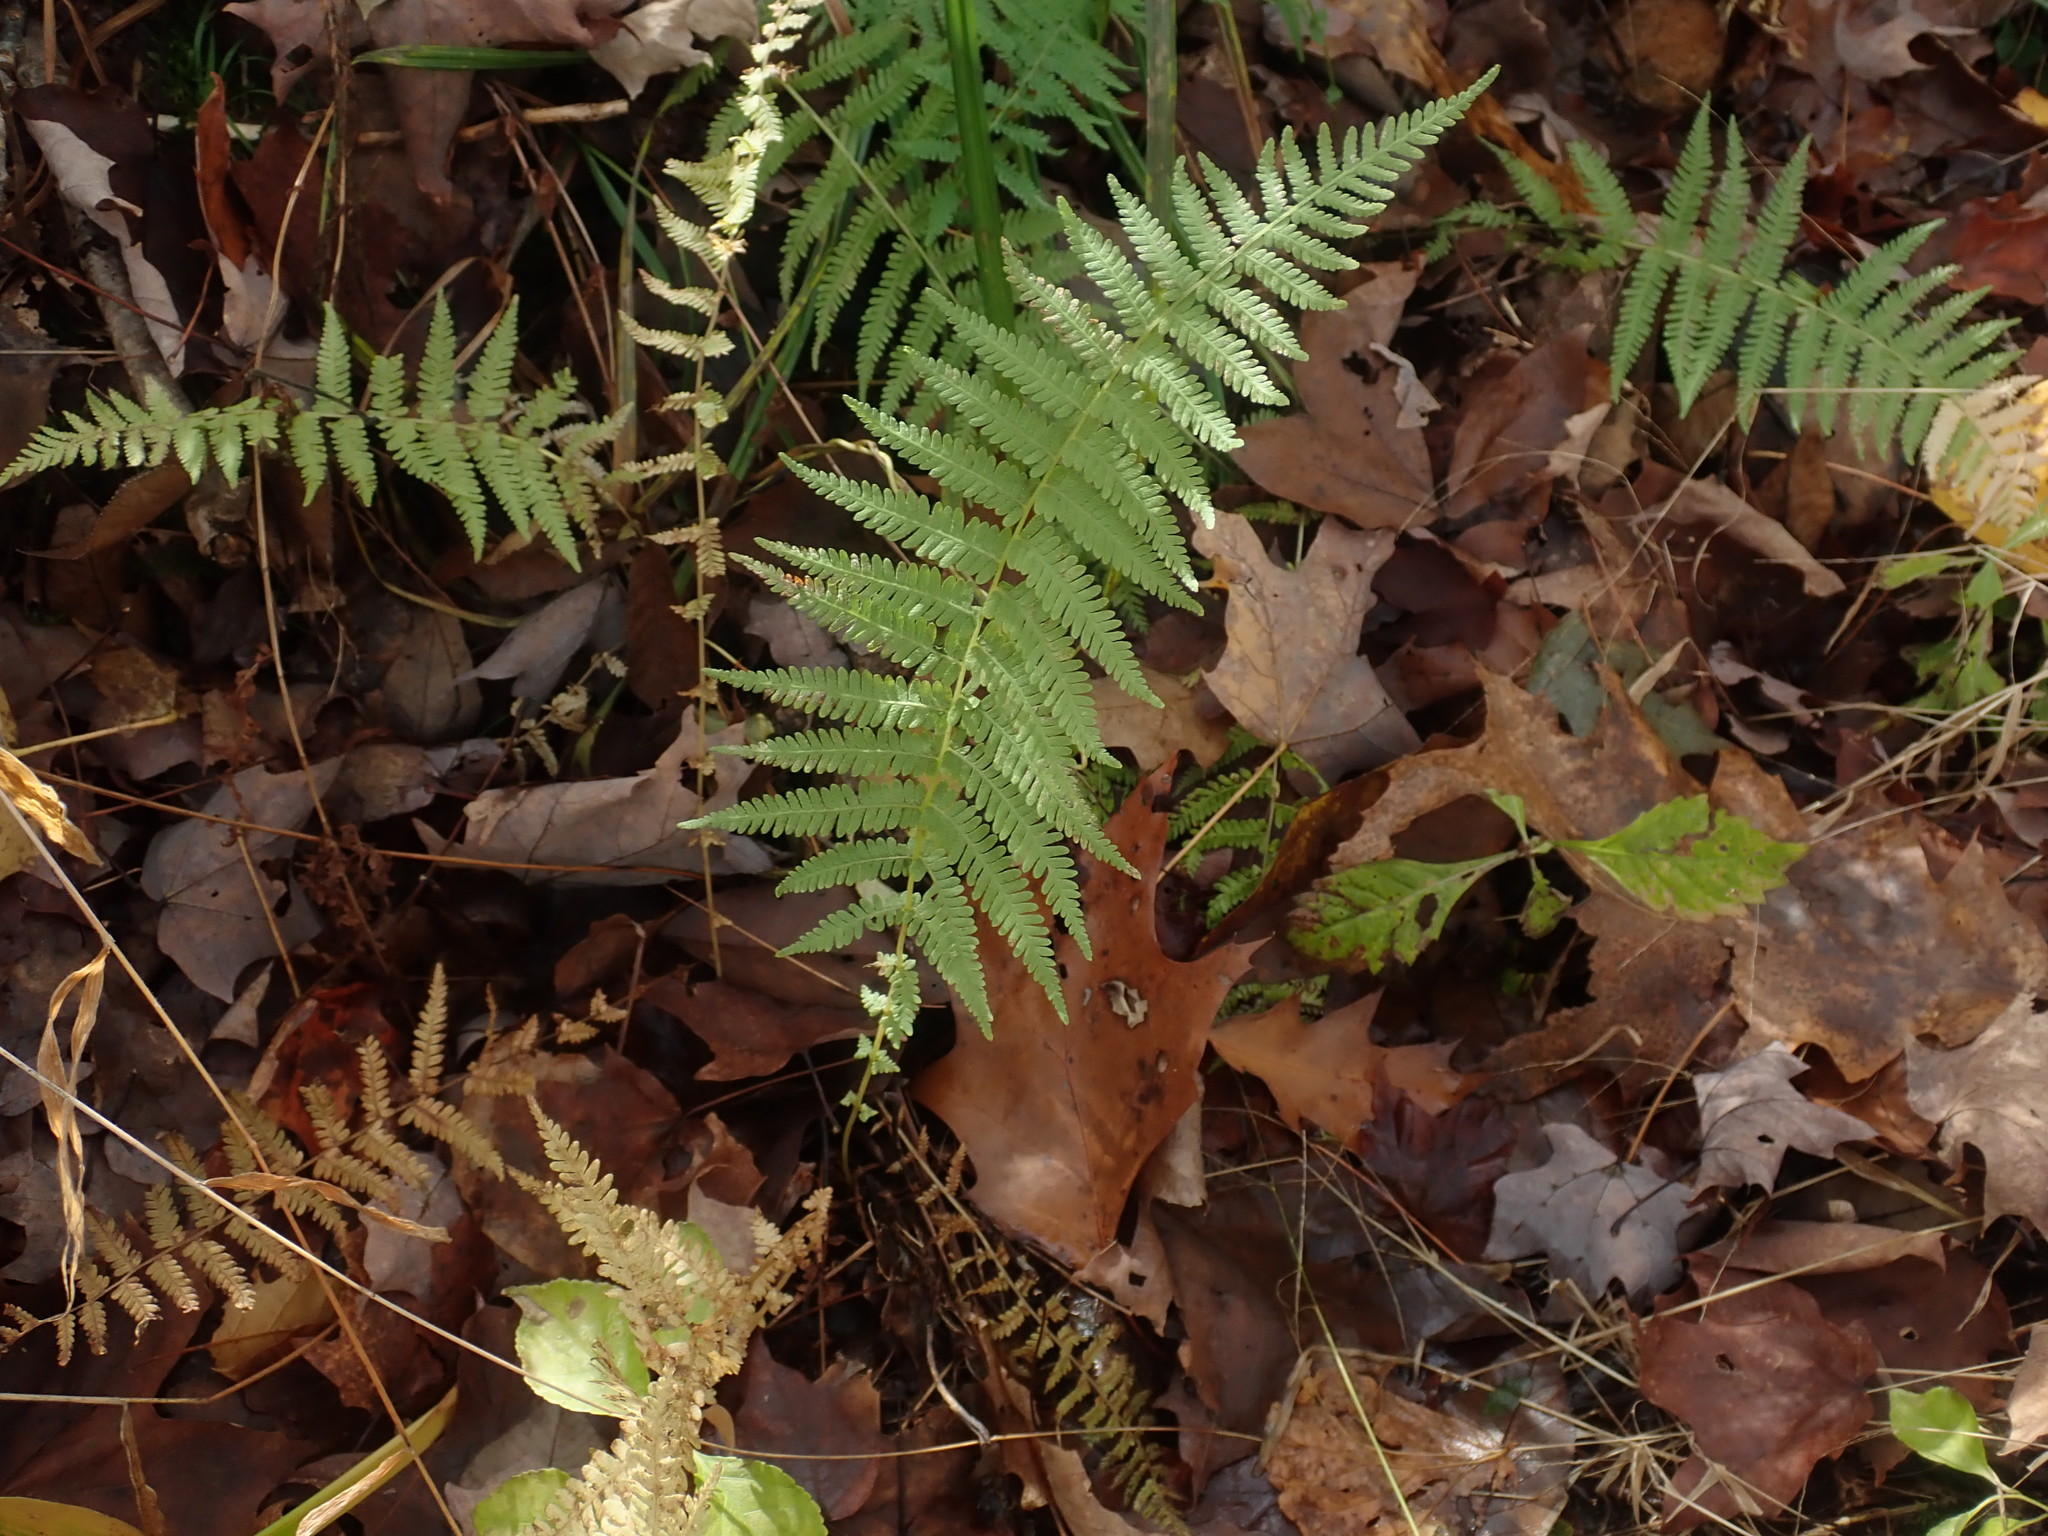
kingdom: Plantae
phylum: Tracheophyta
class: Polypodiopsida
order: Polypodiales
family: Thelypteridaceae
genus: Amauropelta
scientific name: Amauropelta noveboracensis
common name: New york fern
